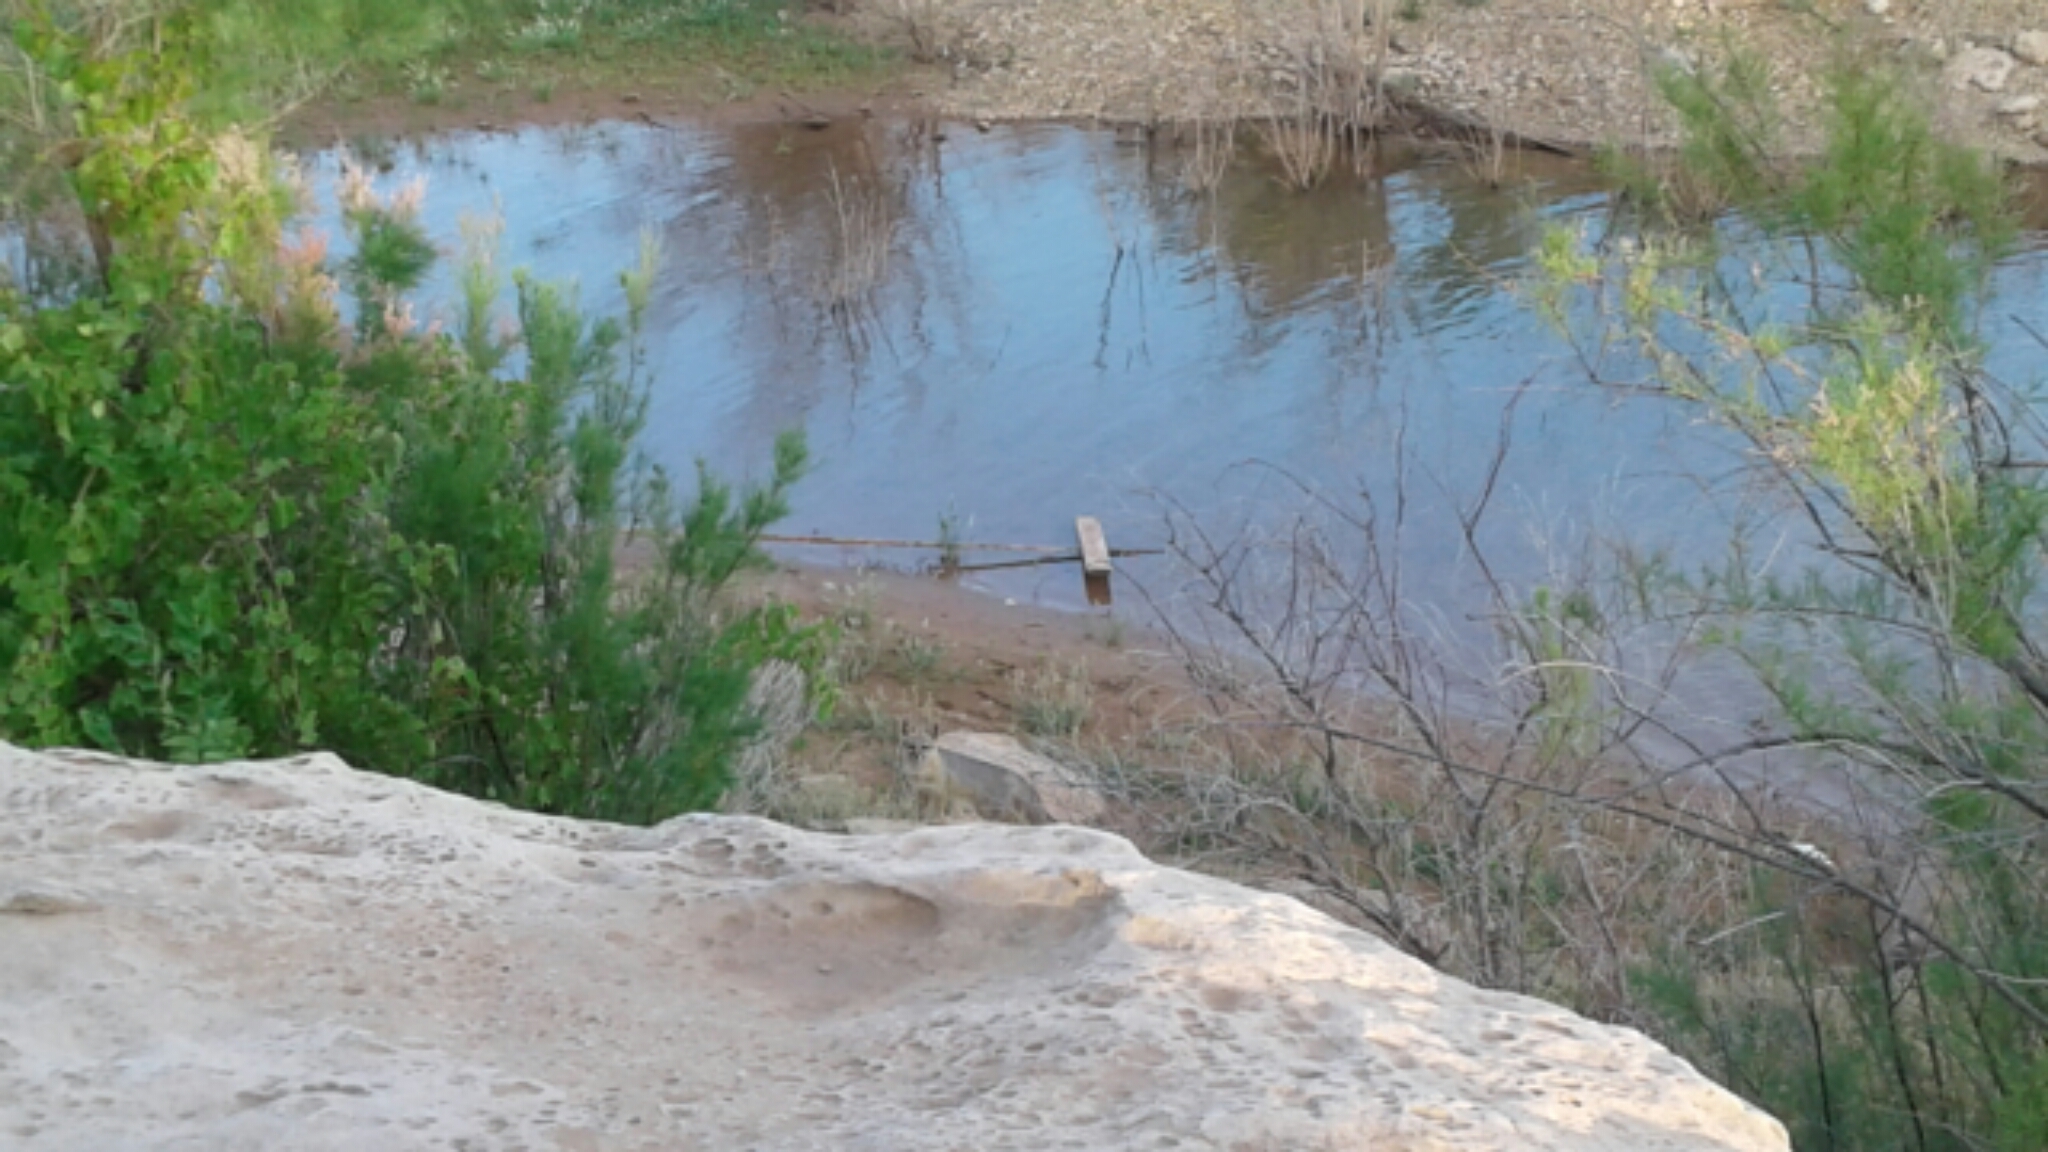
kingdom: Animalia
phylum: Chordata
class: Mammalia
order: Carnivora
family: Canidae
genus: Urocyon
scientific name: Urocyon cinereoargenteus
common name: Gray fox
